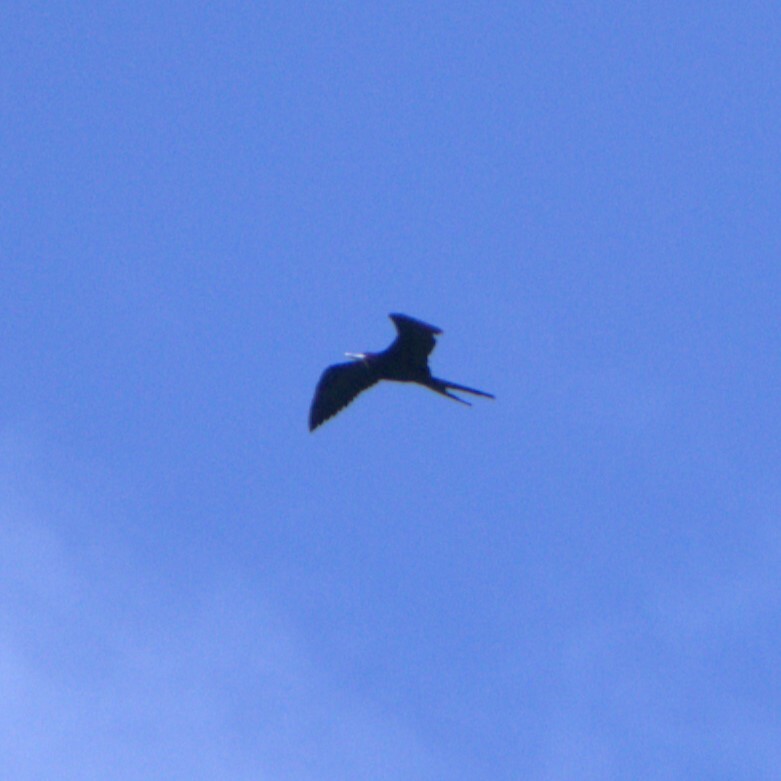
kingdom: Animalia
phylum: Chordata
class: Aves
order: Suliformes
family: Fregatidae
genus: Fregata
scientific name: Fregata magnificens
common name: Magnificent frigatebird
